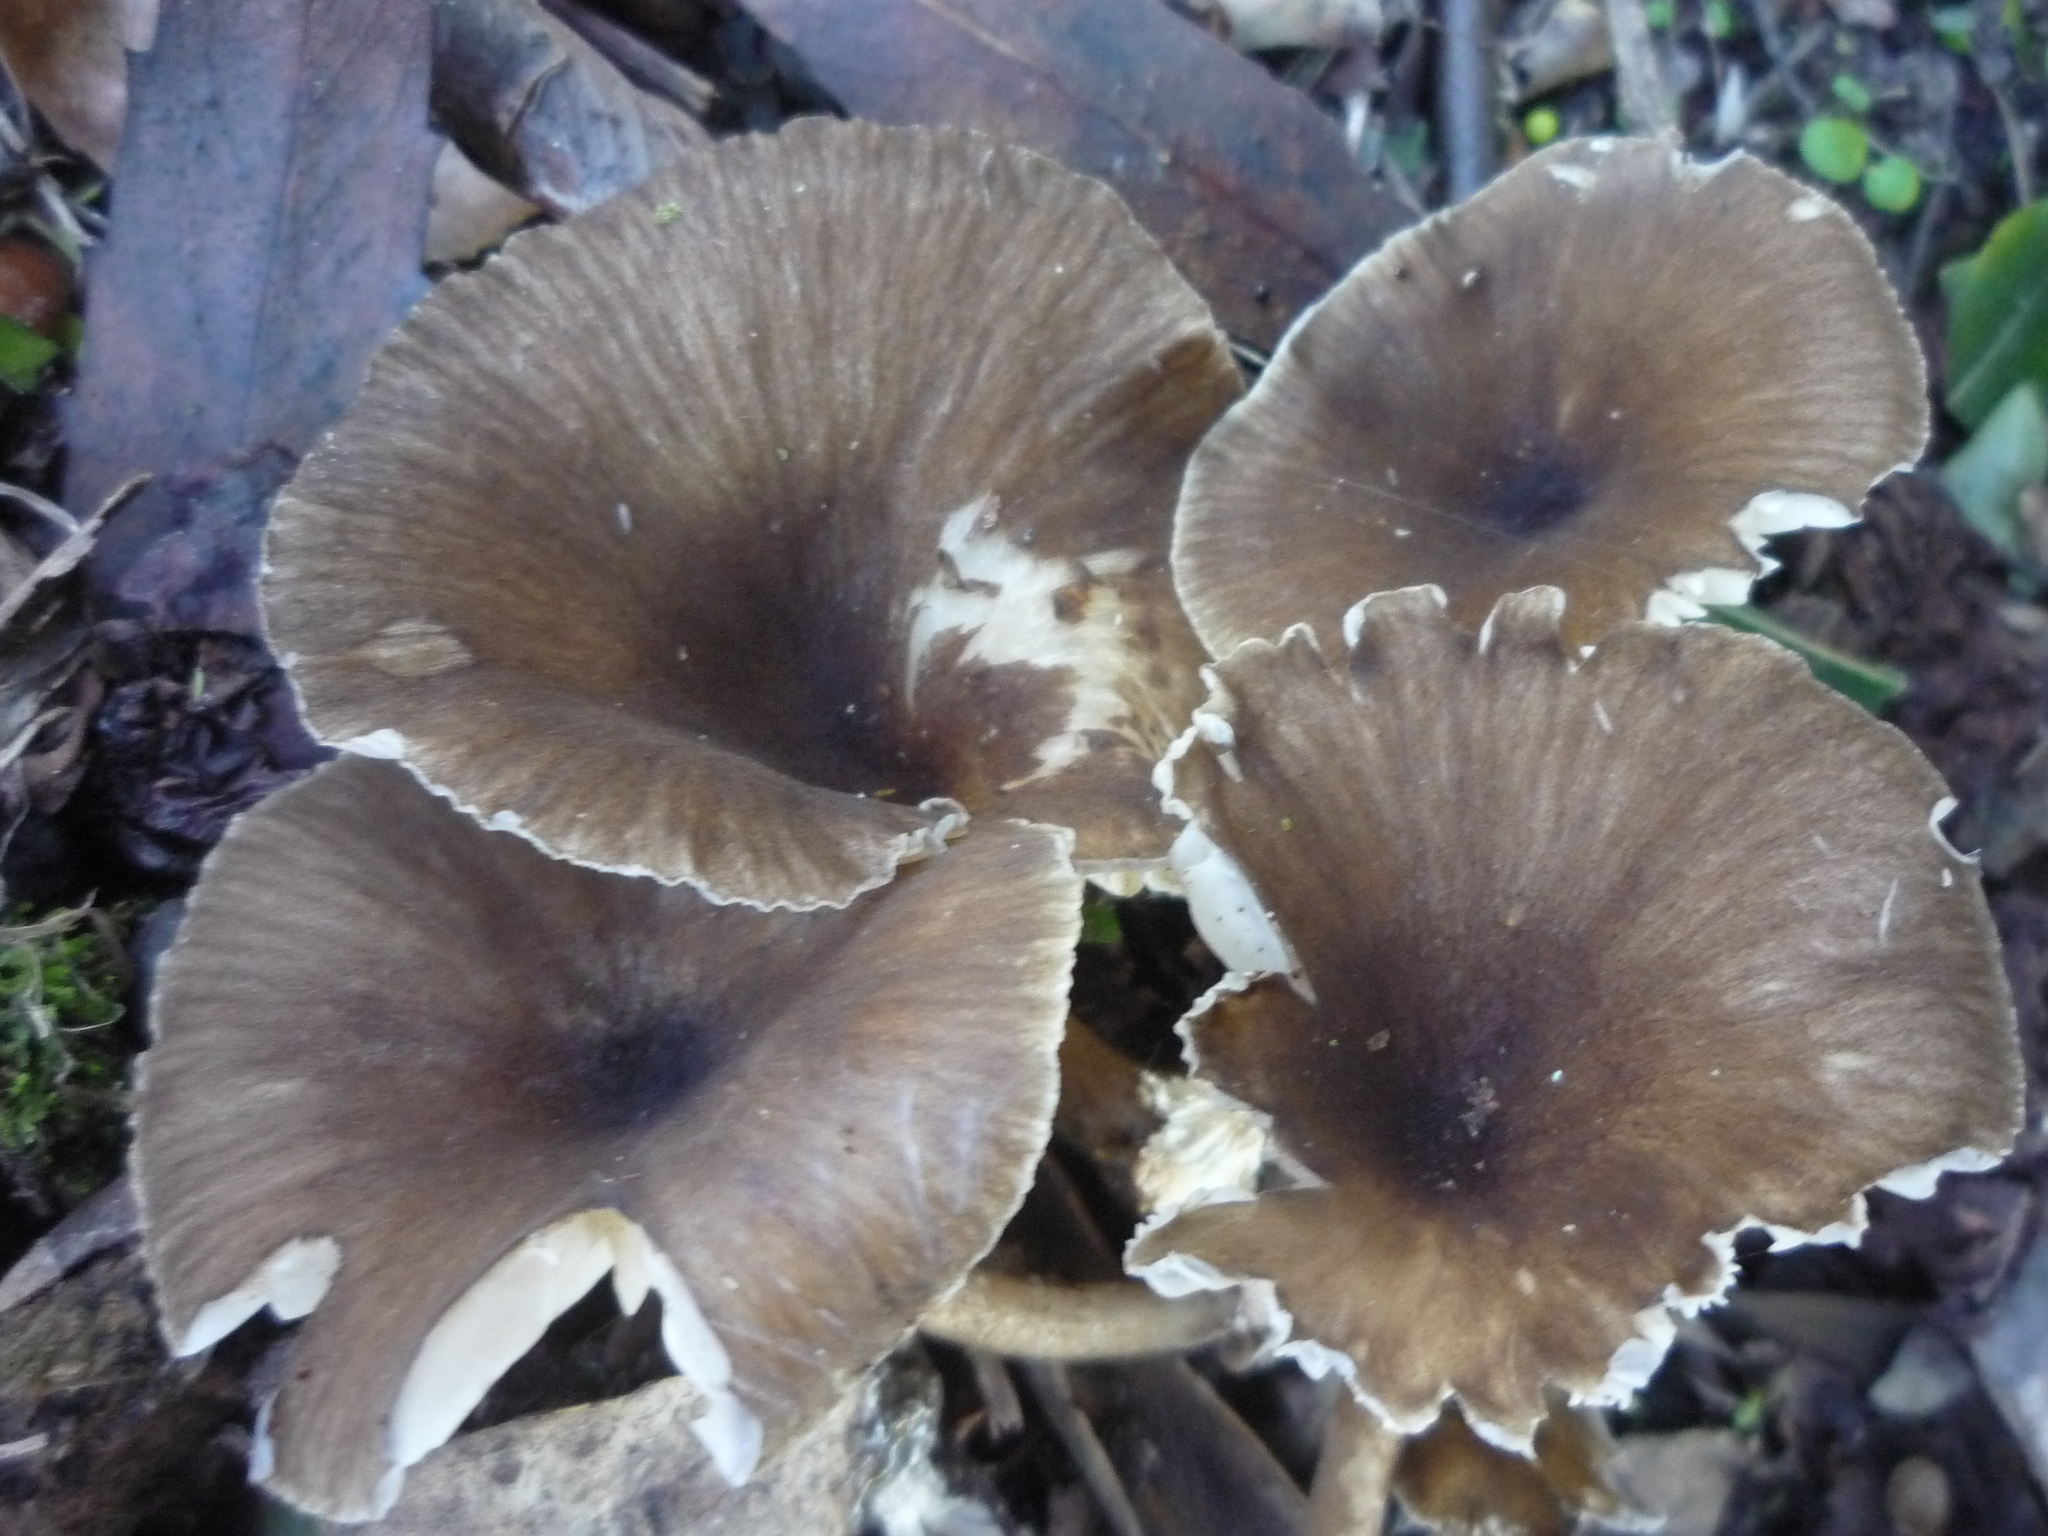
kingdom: Fungi
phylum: Basidiomycota
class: Agaricomycetes
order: Agaricales
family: Marasmiaceae
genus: Gerronema
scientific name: Gerronema
